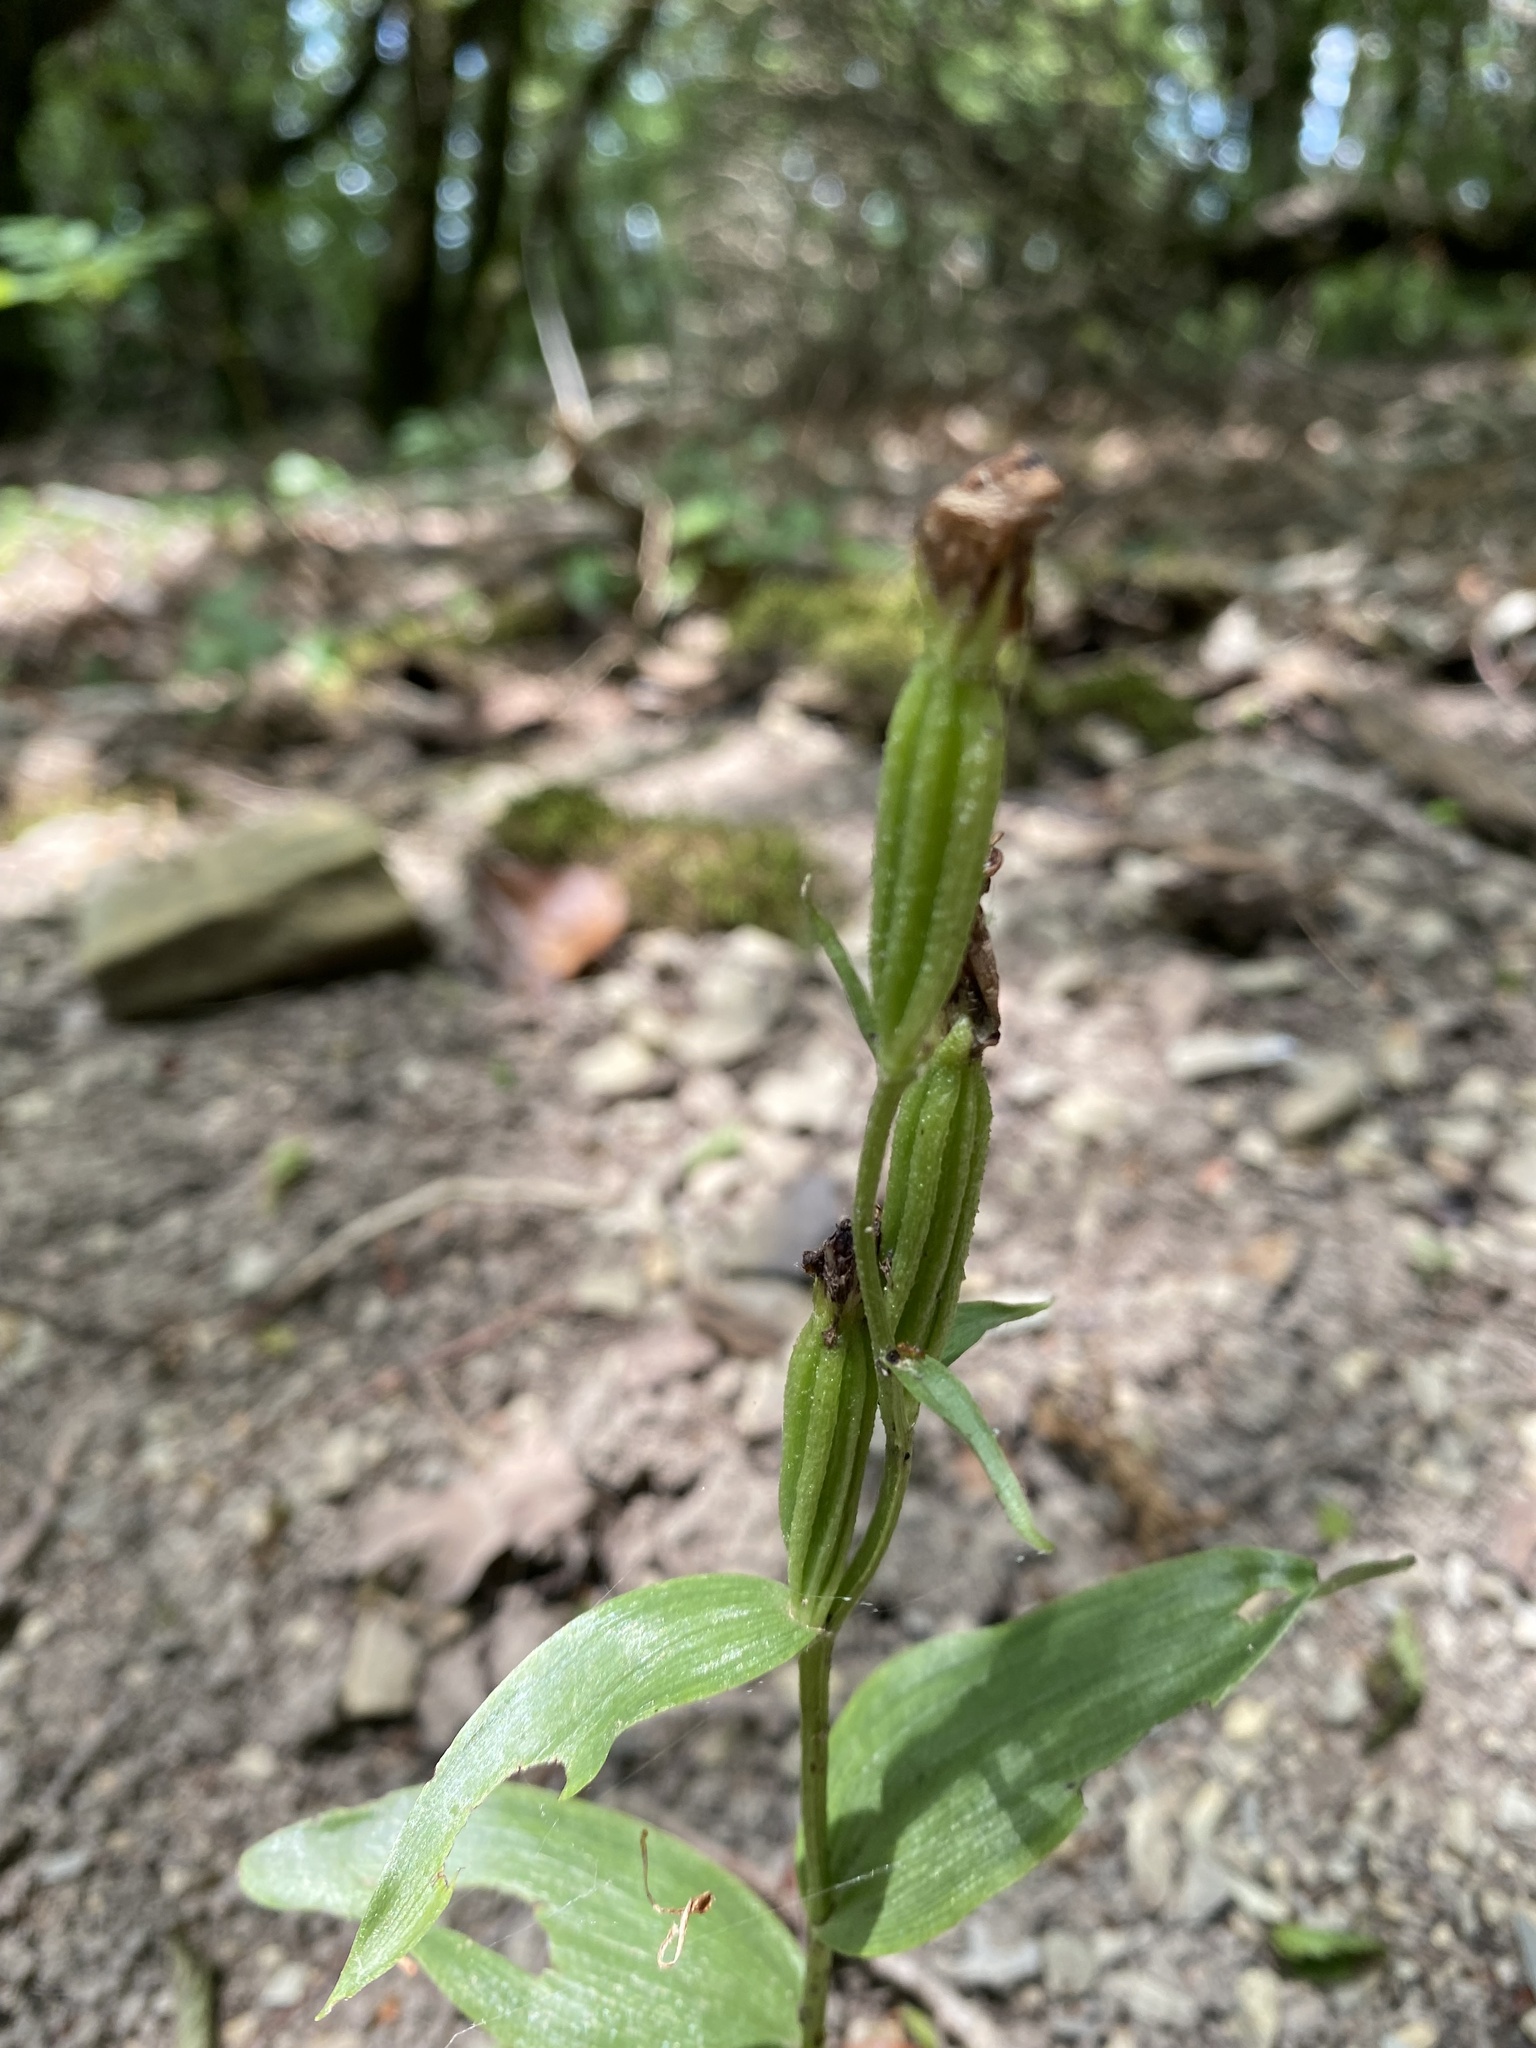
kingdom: Plantae
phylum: Tracheophyta
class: Liliopsida
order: Asparagales
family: Orchidaceae
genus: Cephalanthera
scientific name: Cephalanthera damasonium
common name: White helleborine
